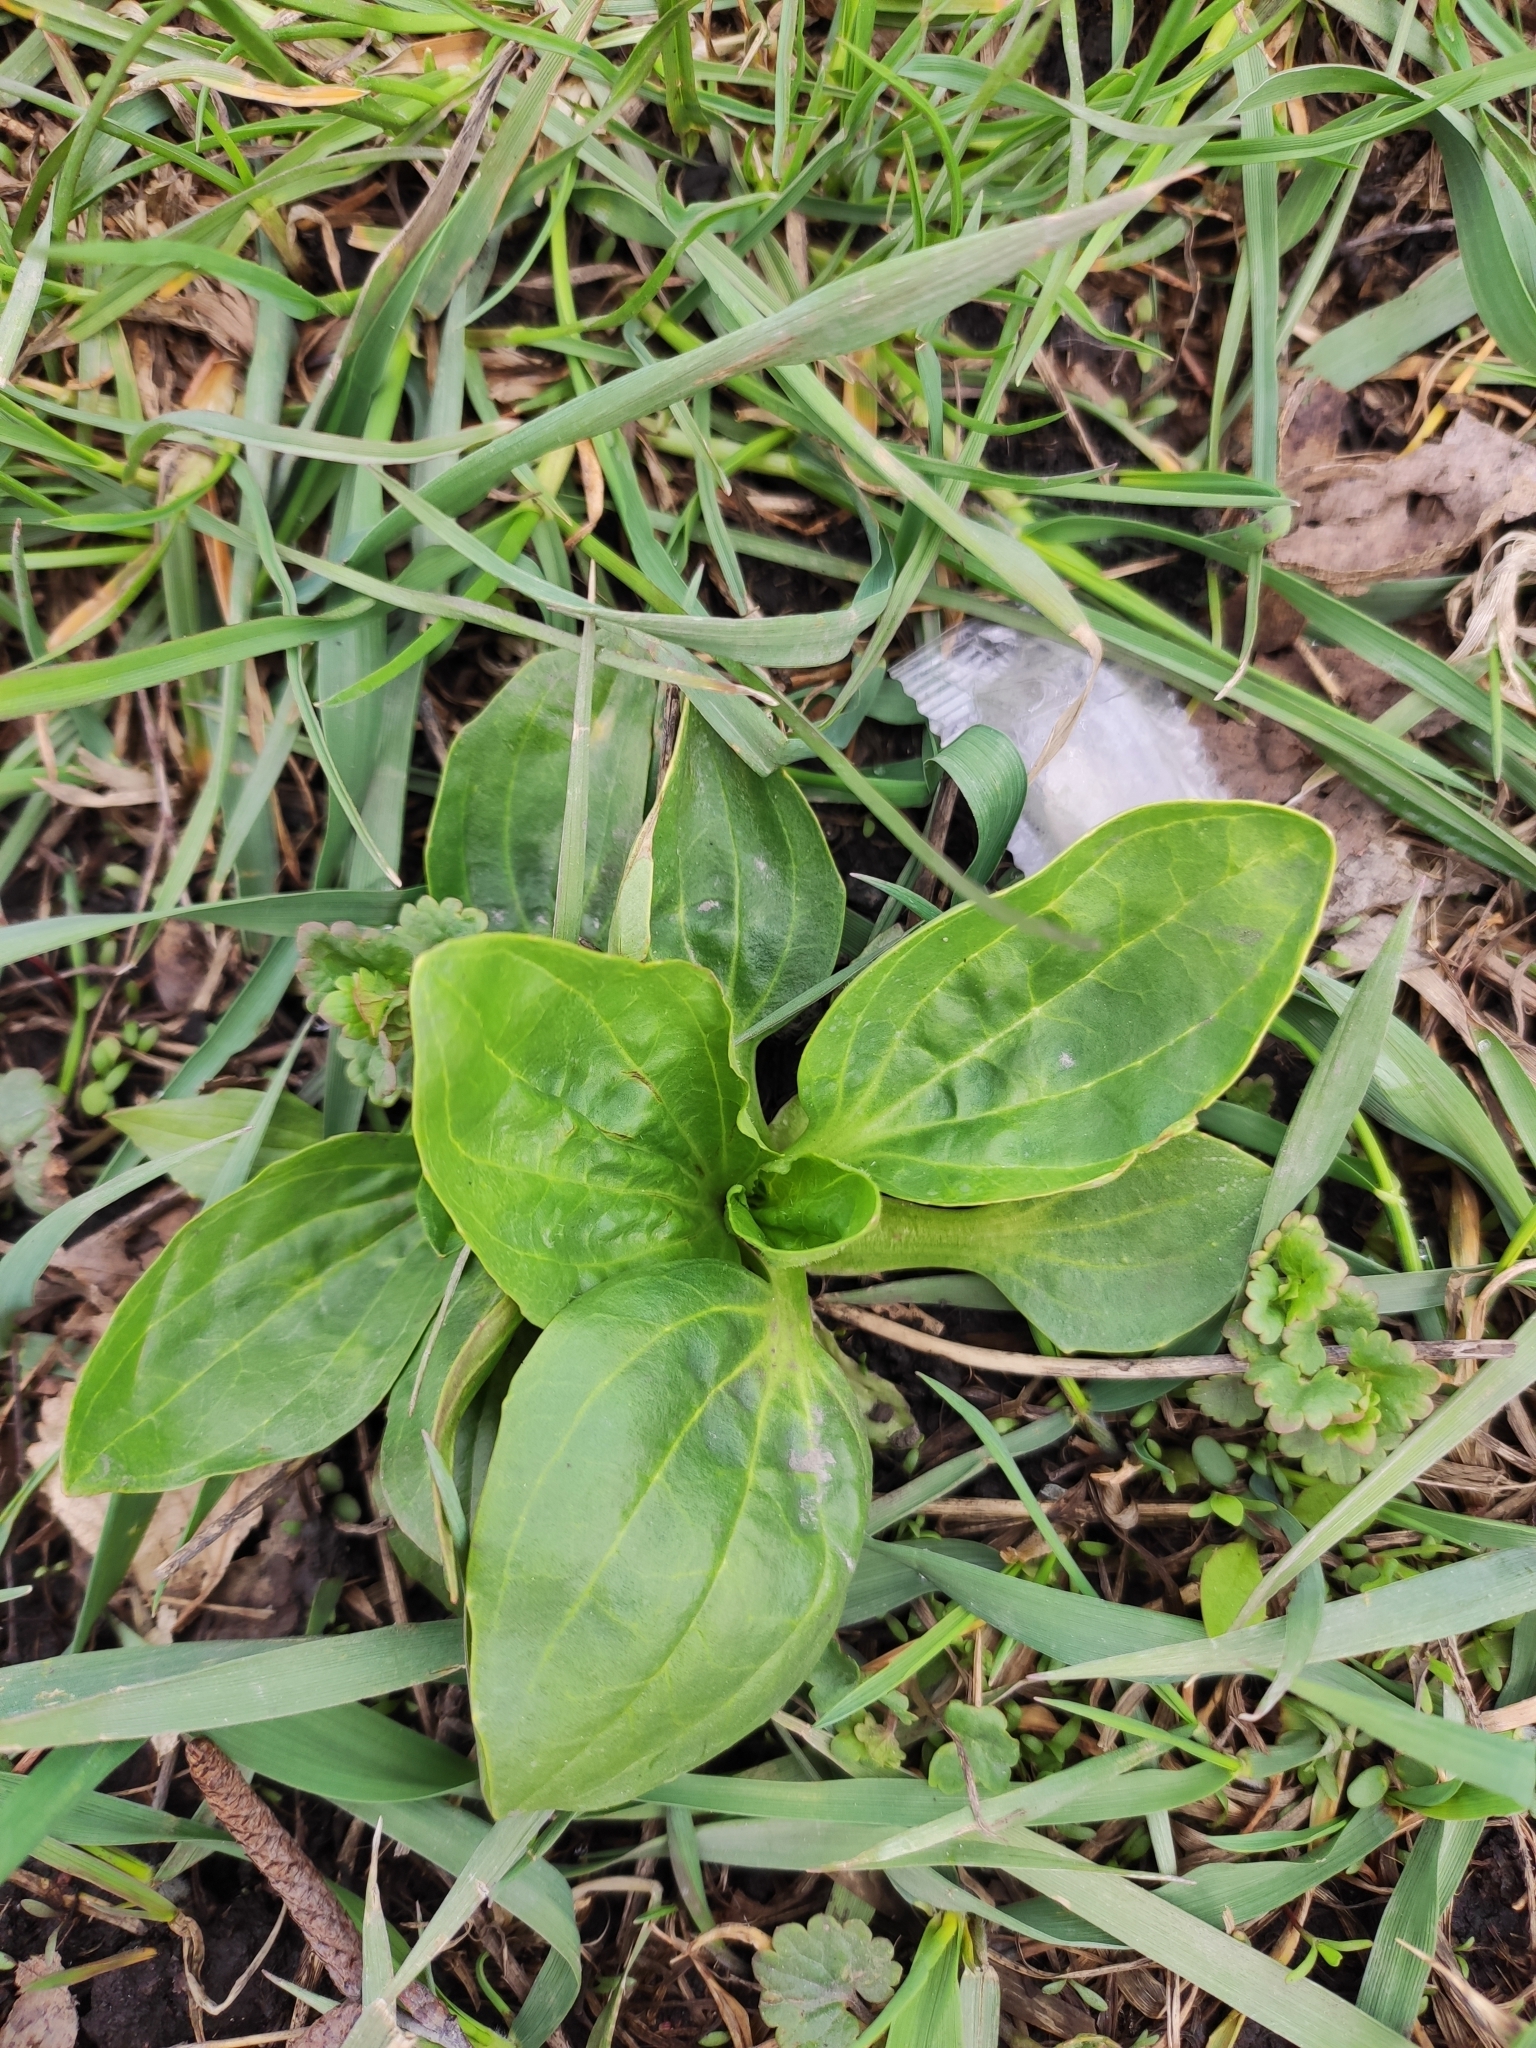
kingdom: Plantae
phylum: Tracheophyta
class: Magnoliopsida
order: Lamiales
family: Plantaginaceae
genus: Plantago
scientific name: Plantago major
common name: Common plantain
